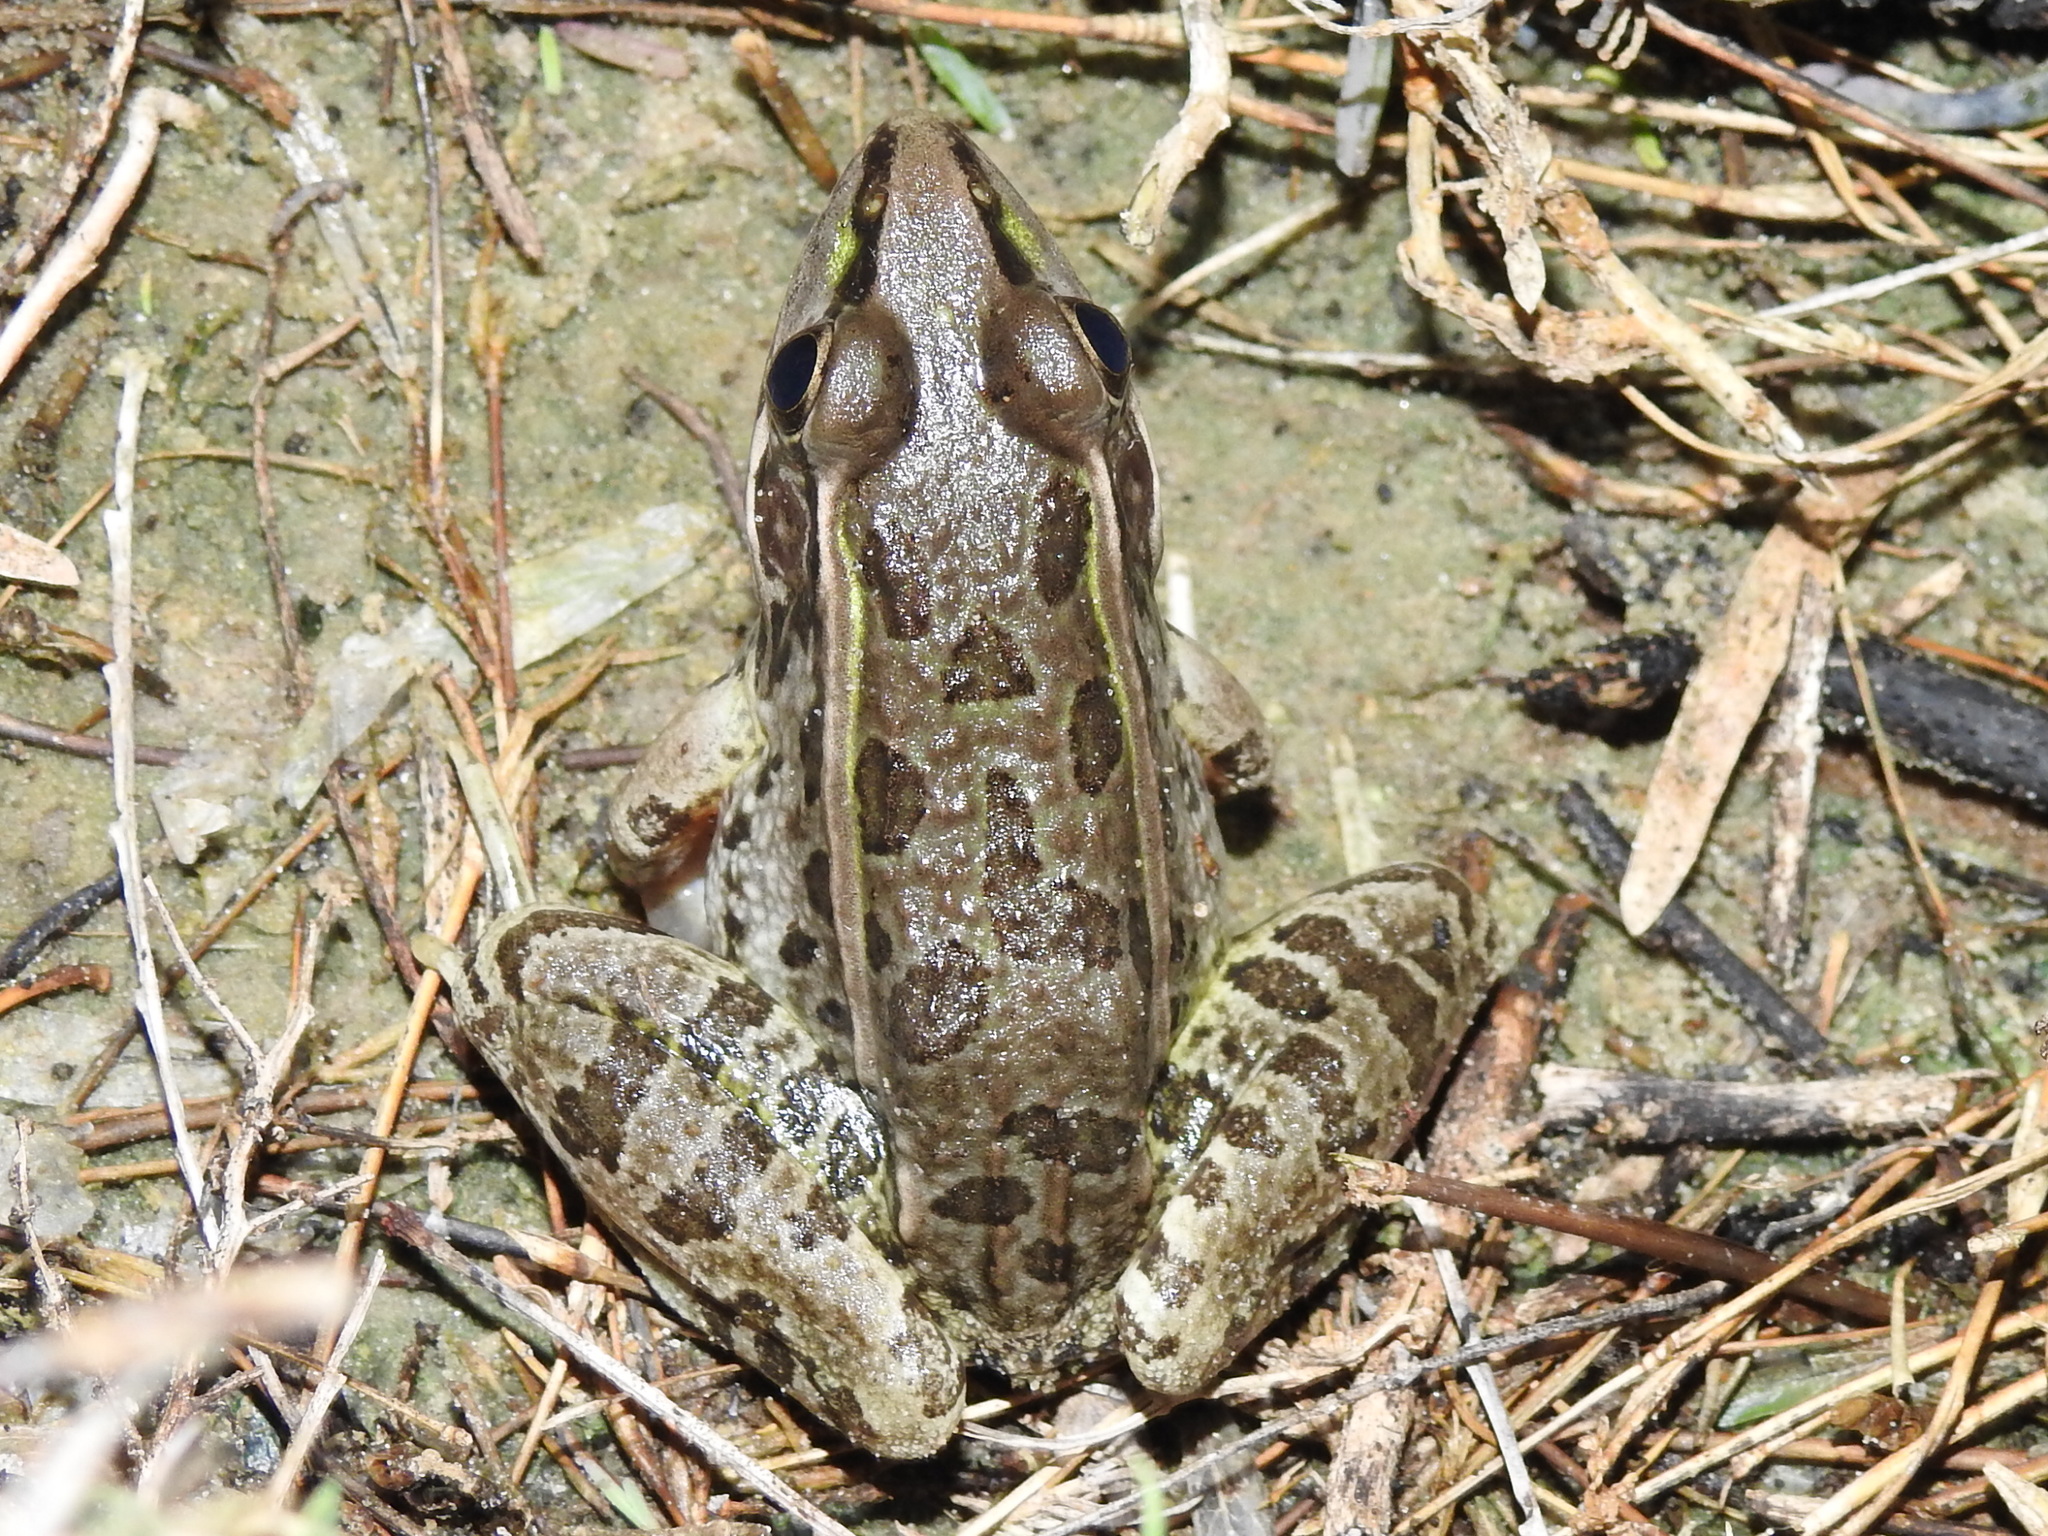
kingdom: Animalia
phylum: Chordata
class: Amphibia
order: Anura
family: Ranidae
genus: Lithobates
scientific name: Lithobates berlandieri
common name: Rio grande leopard frog
